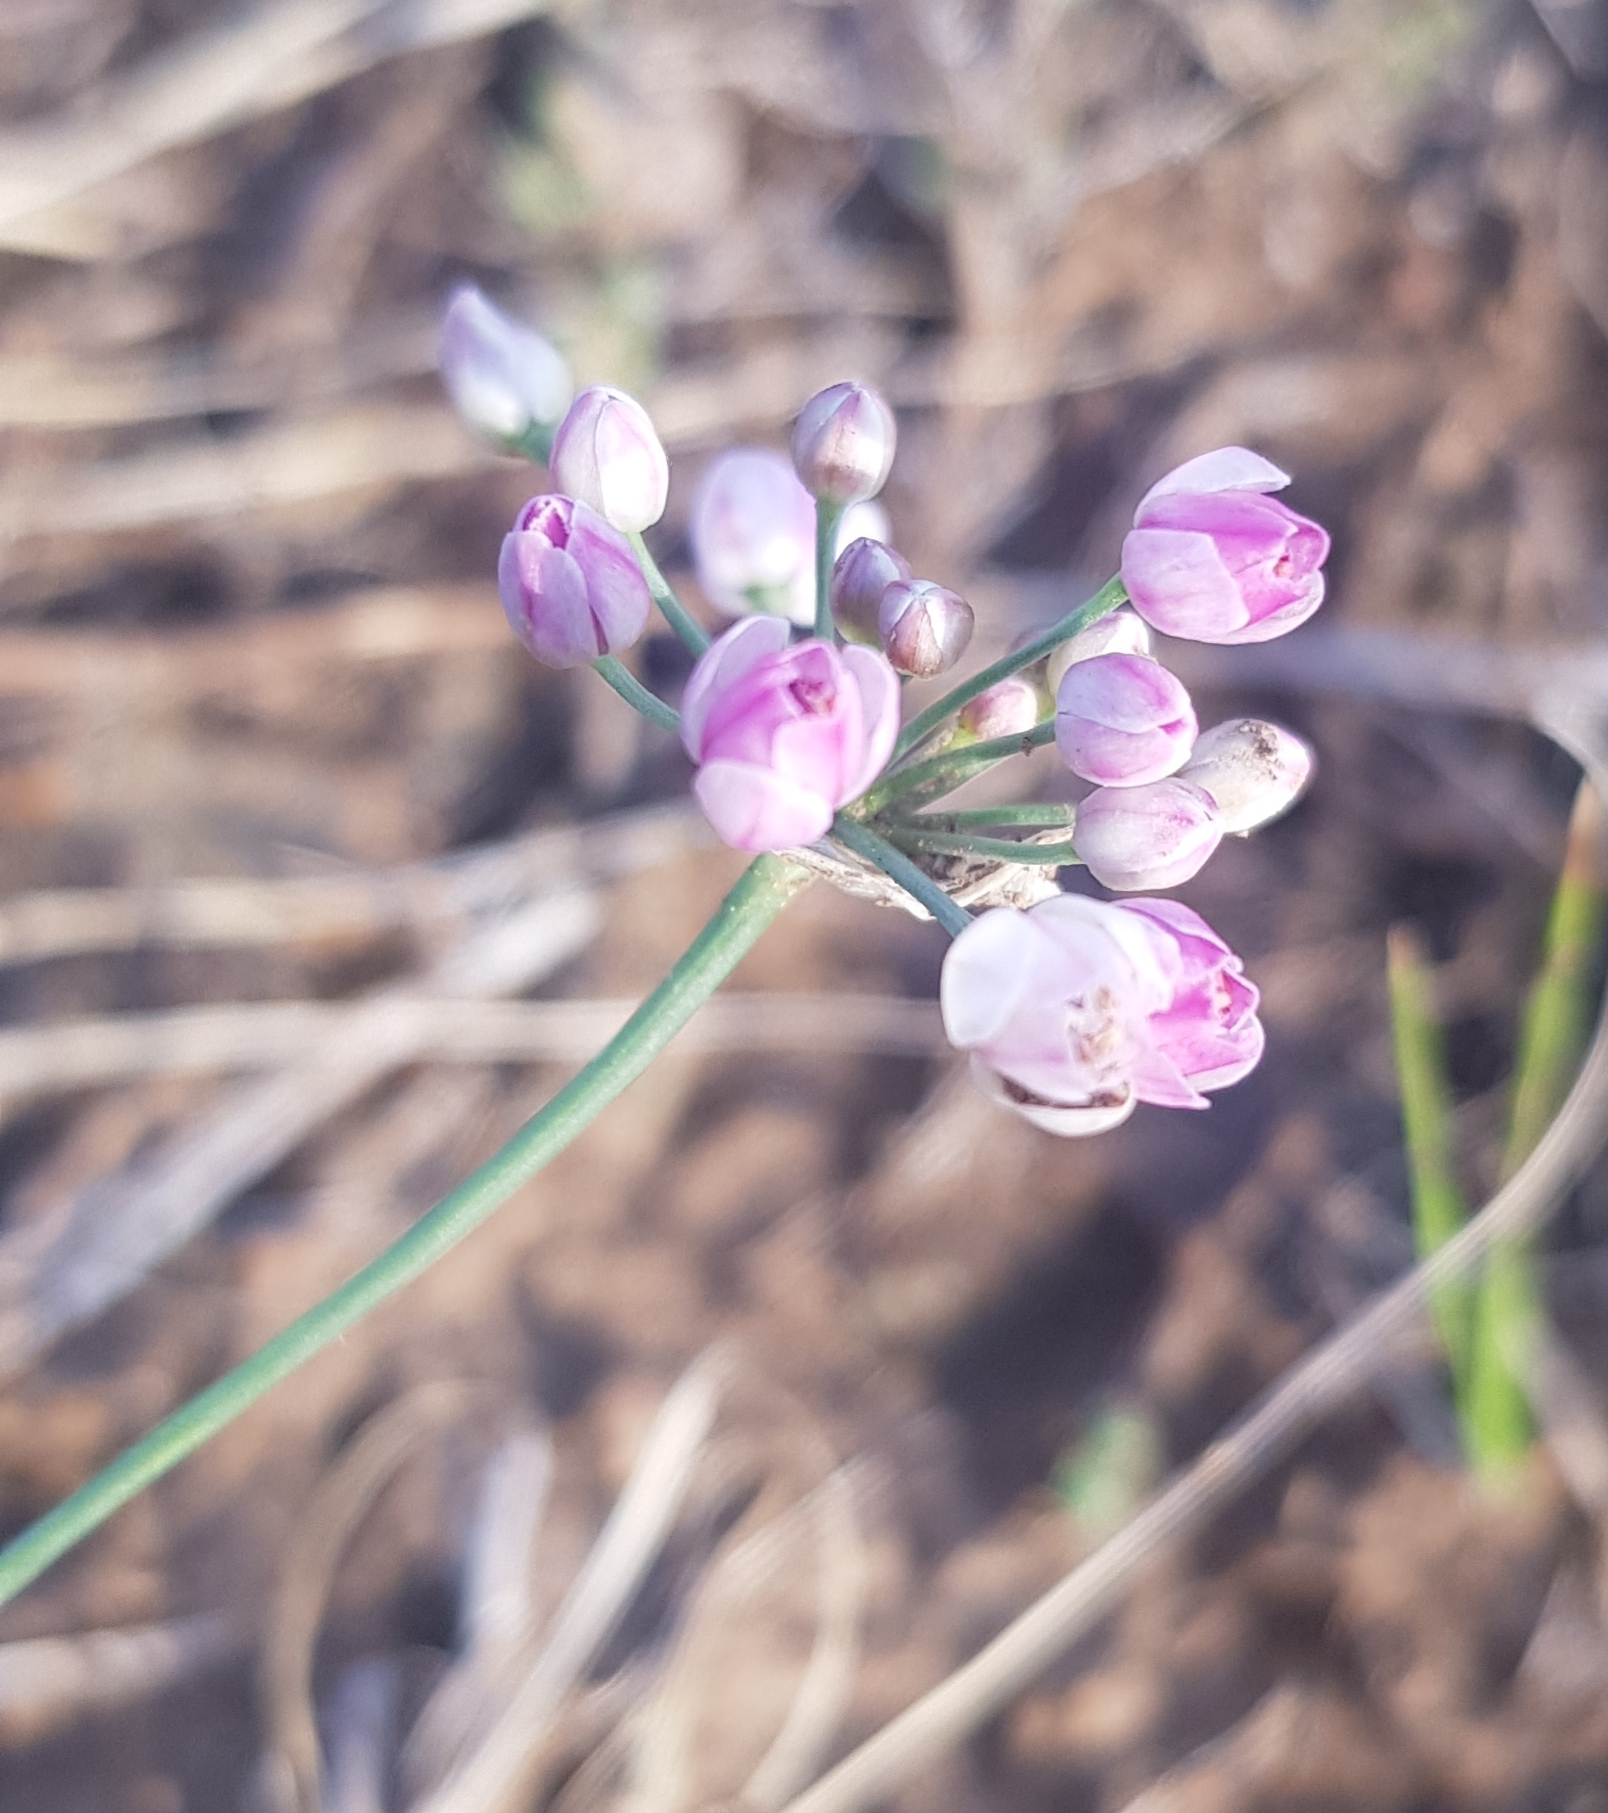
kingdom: Plantae
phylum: Tracheophyta
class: Liliopsida
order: Asparagales
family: Amaryllidaceae
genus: Allium
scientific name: Allium anisopodium
